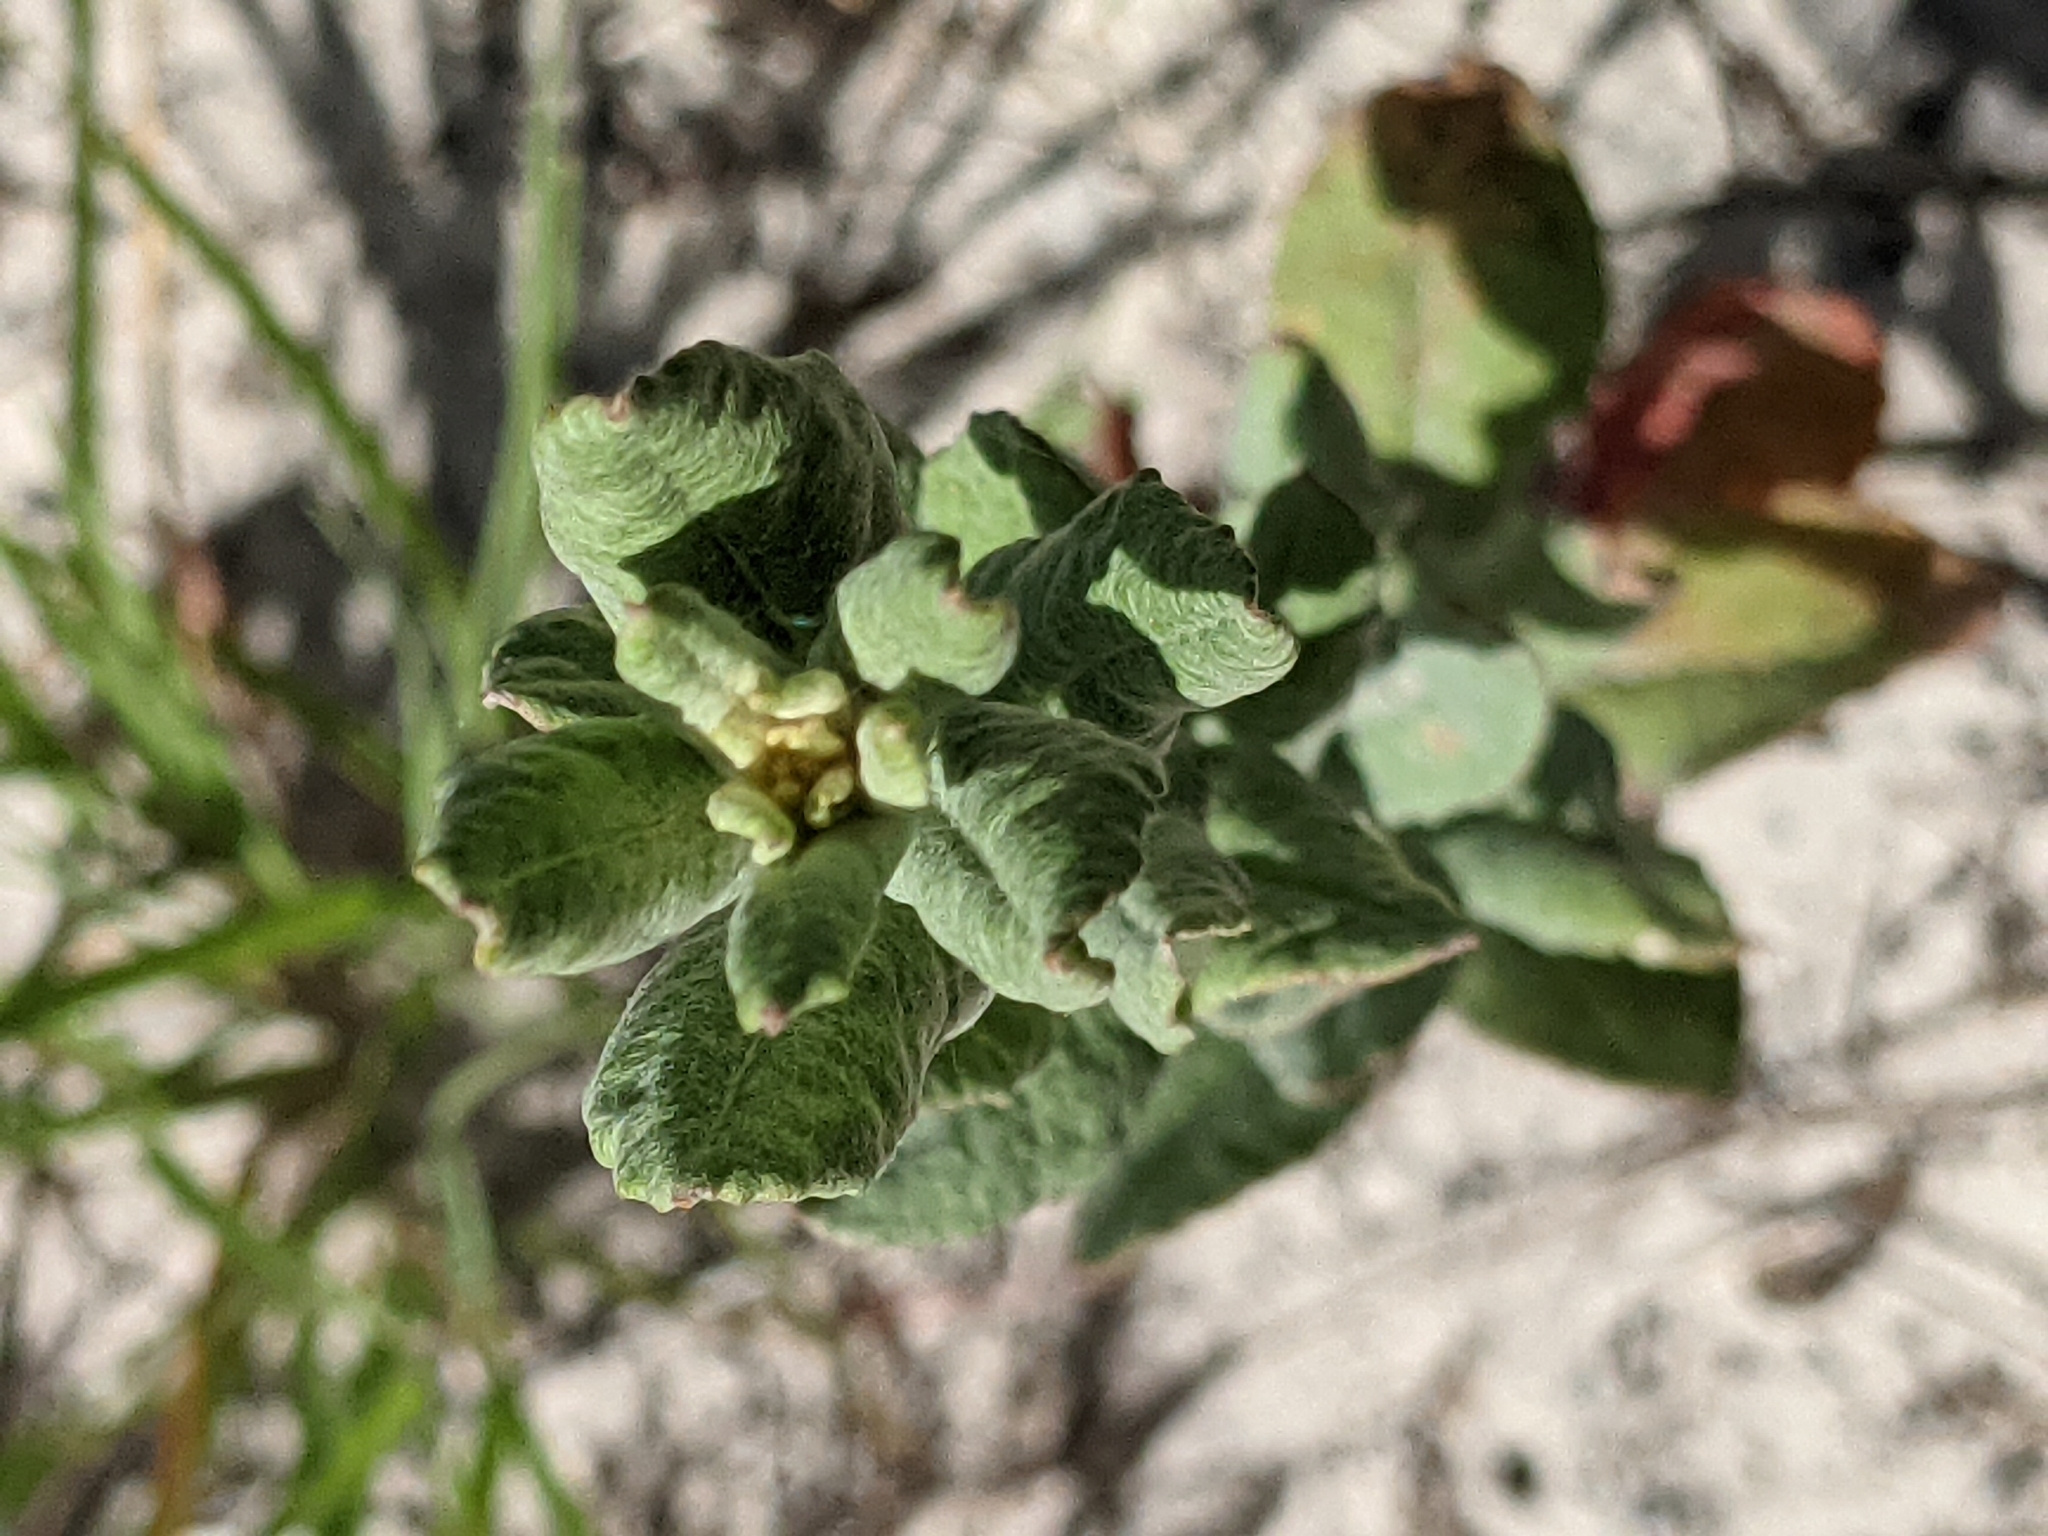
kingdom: Plantae
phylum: Tracheophyta
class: Magnoliopsida
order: Caryophyllales
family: Polygonaceae
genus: Eriogonum
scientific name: Eriogonum multiflorum
